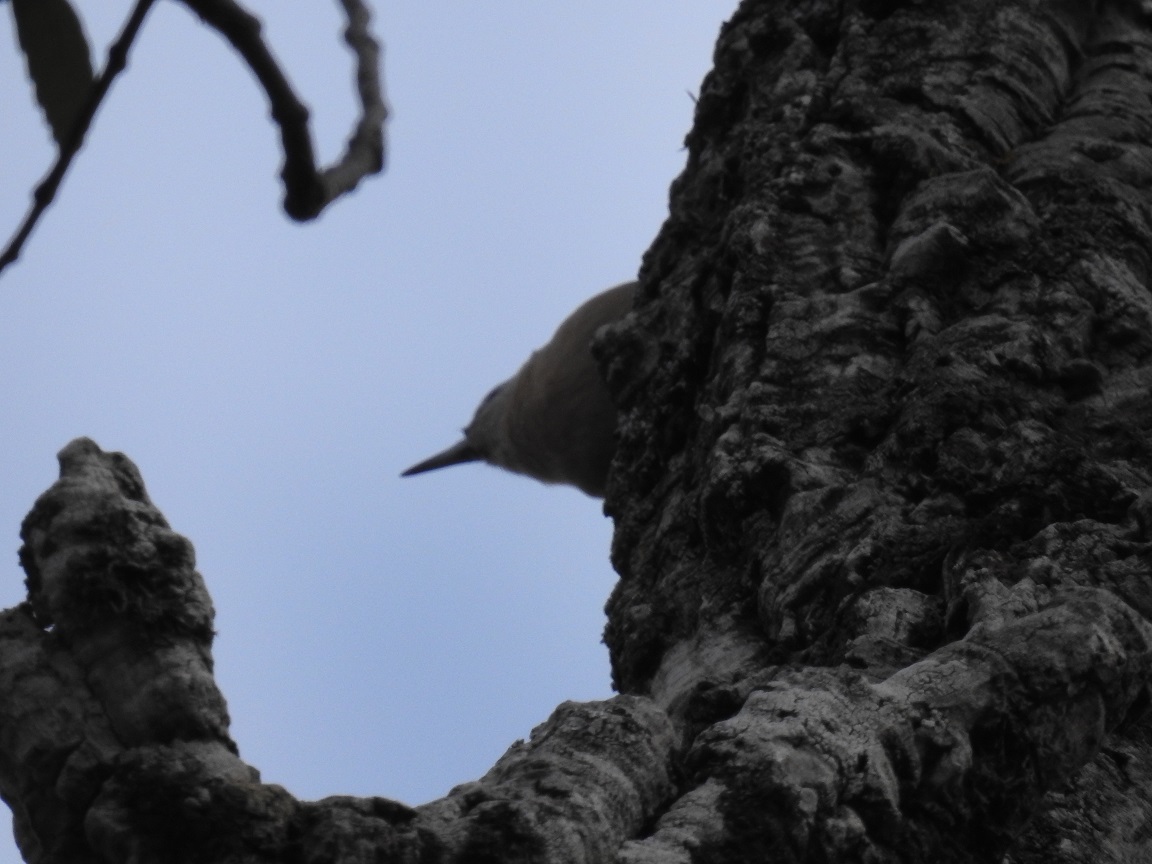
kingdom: Animalia
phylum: Chordata
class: Aves
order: Passeriformes
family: Sittidae
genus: Sitta
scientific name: Sitta ledanti
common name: Algerian nuthatch
